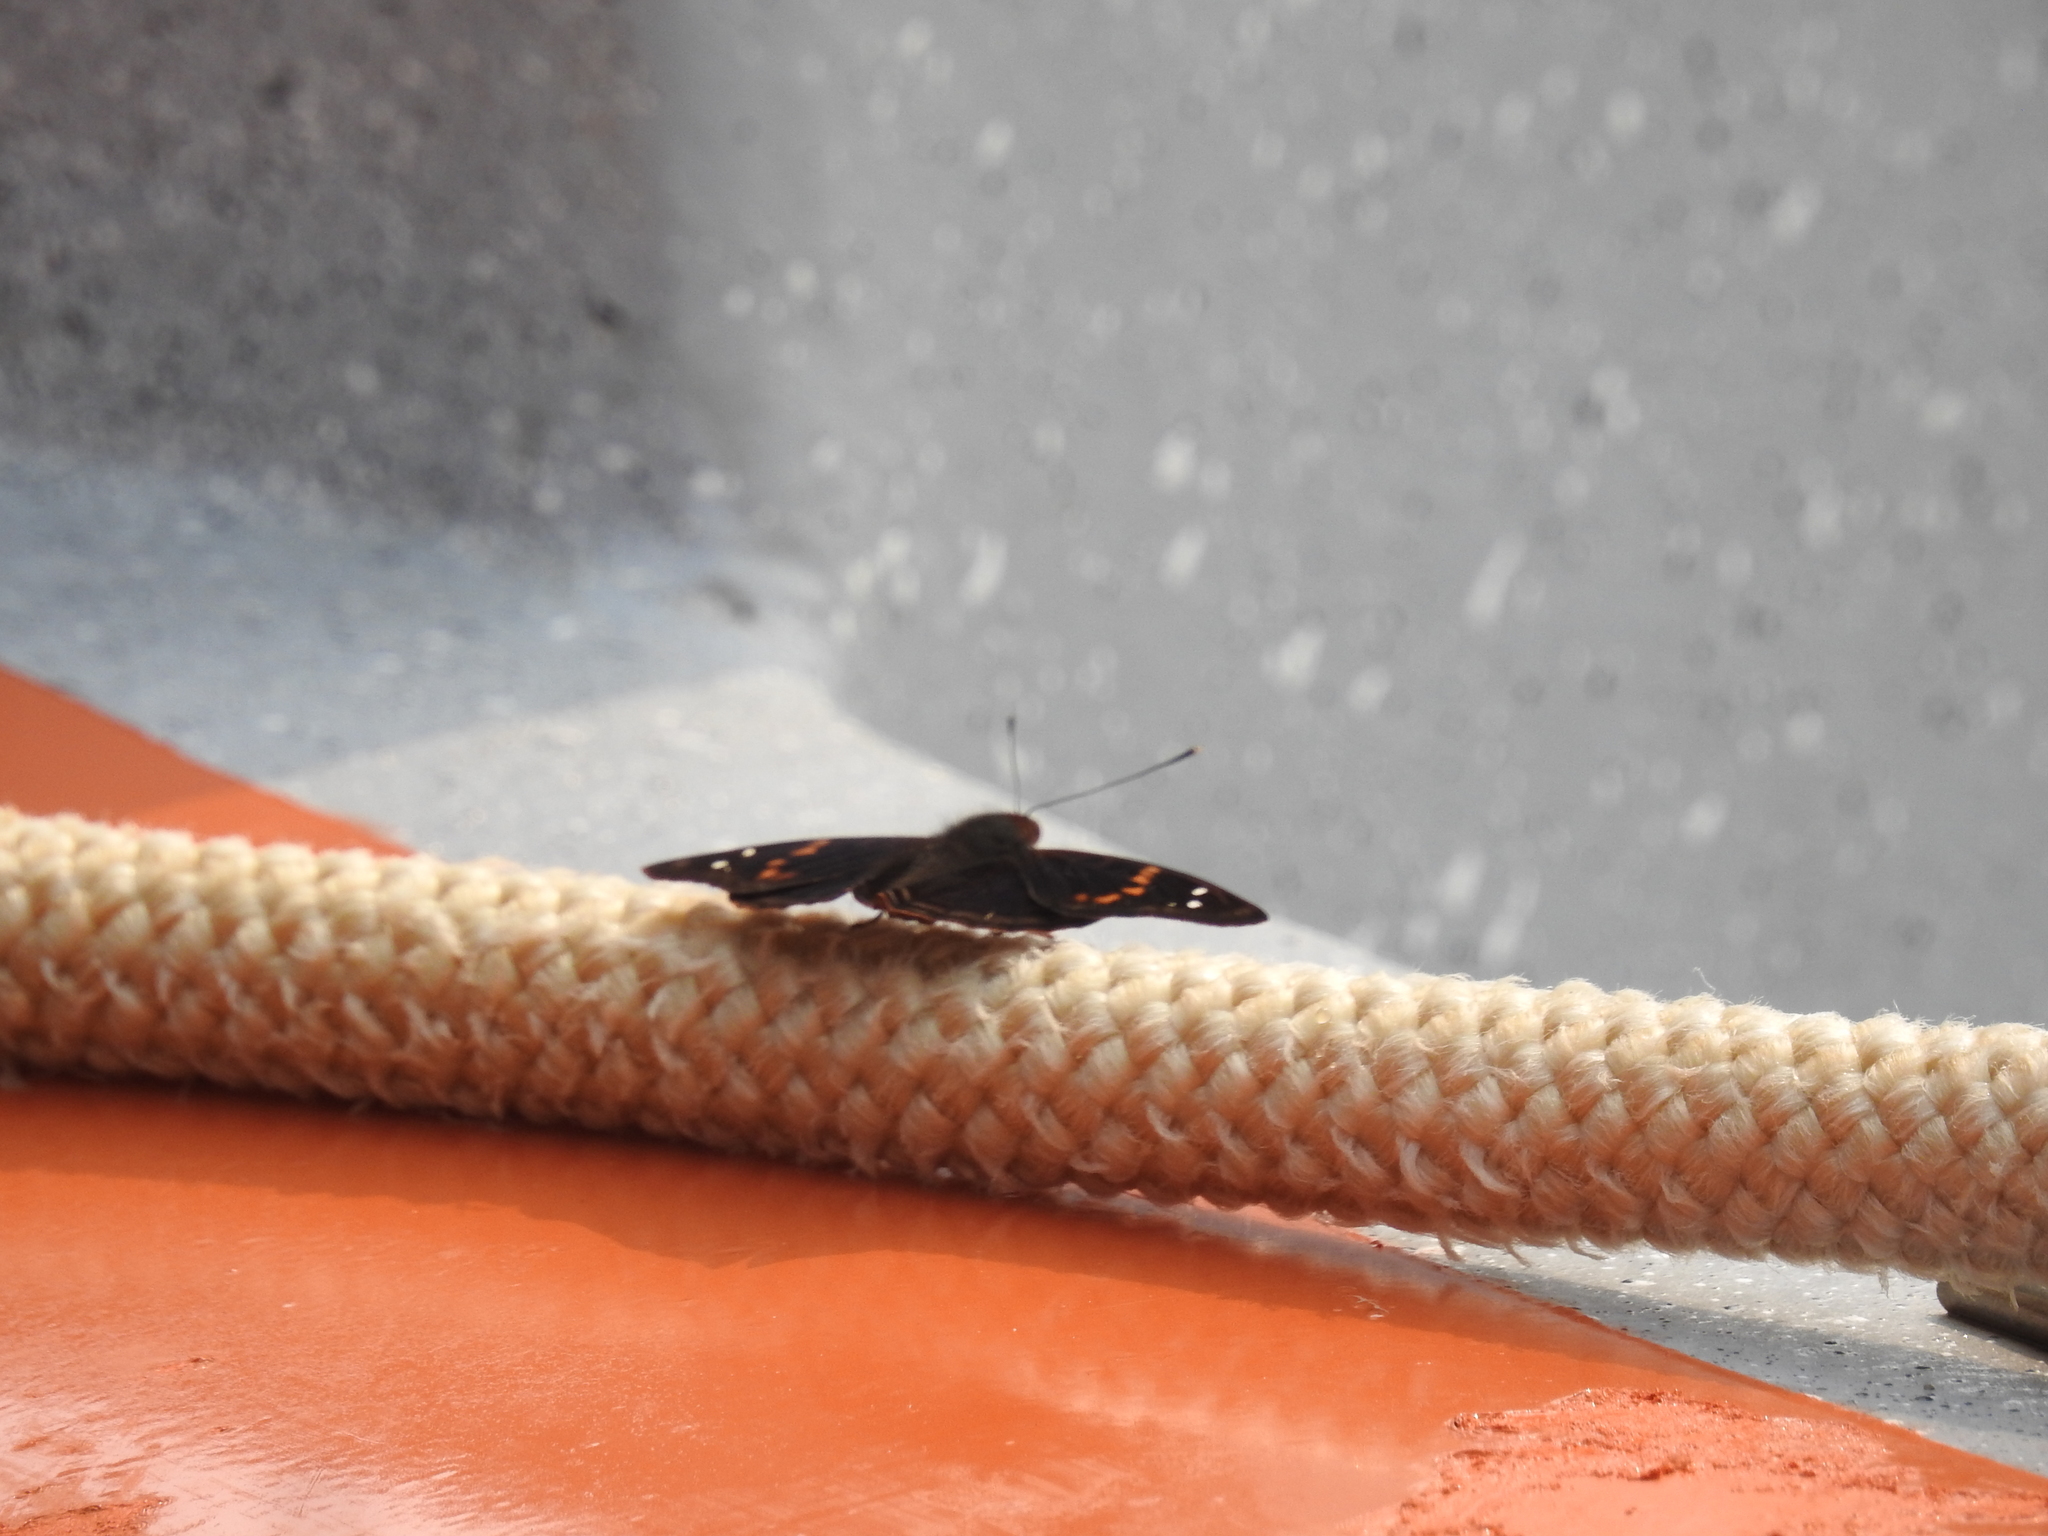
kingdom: Animalia
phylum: Arthropoda
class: Insecta
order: Lepidoptera
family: Nymphalidae
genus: Doxocopa
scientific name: Doxocopa agathina
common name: Agathina emperor
